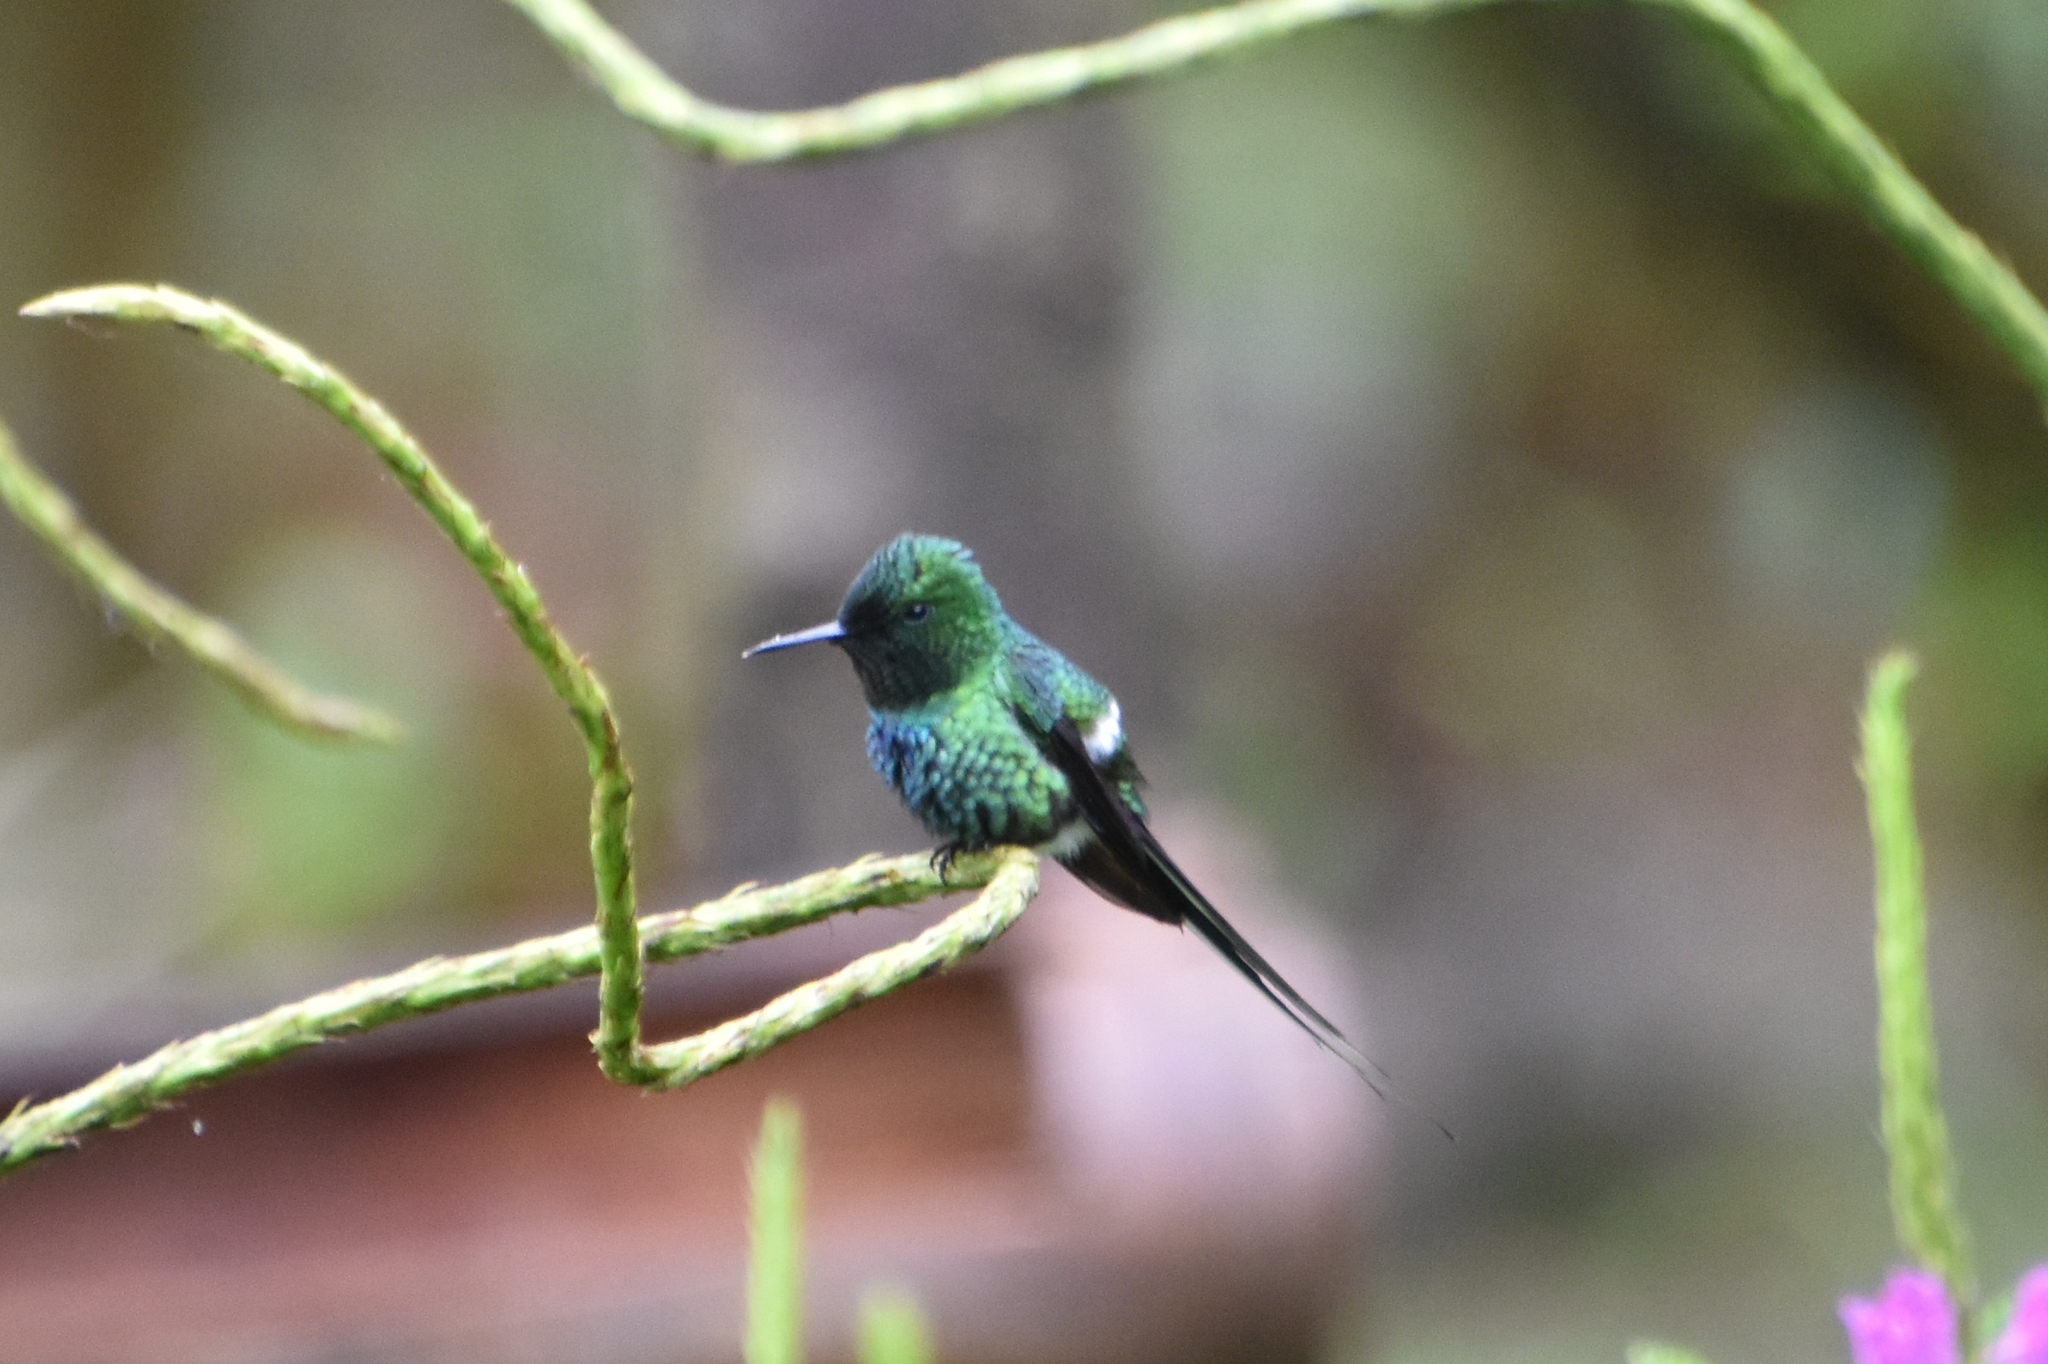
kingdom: Animalia
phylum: Chordata
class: Aves
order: Apodiformes
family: Trochilidae
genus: Discosura
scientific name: Discosura conversii
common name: Green thorntail
